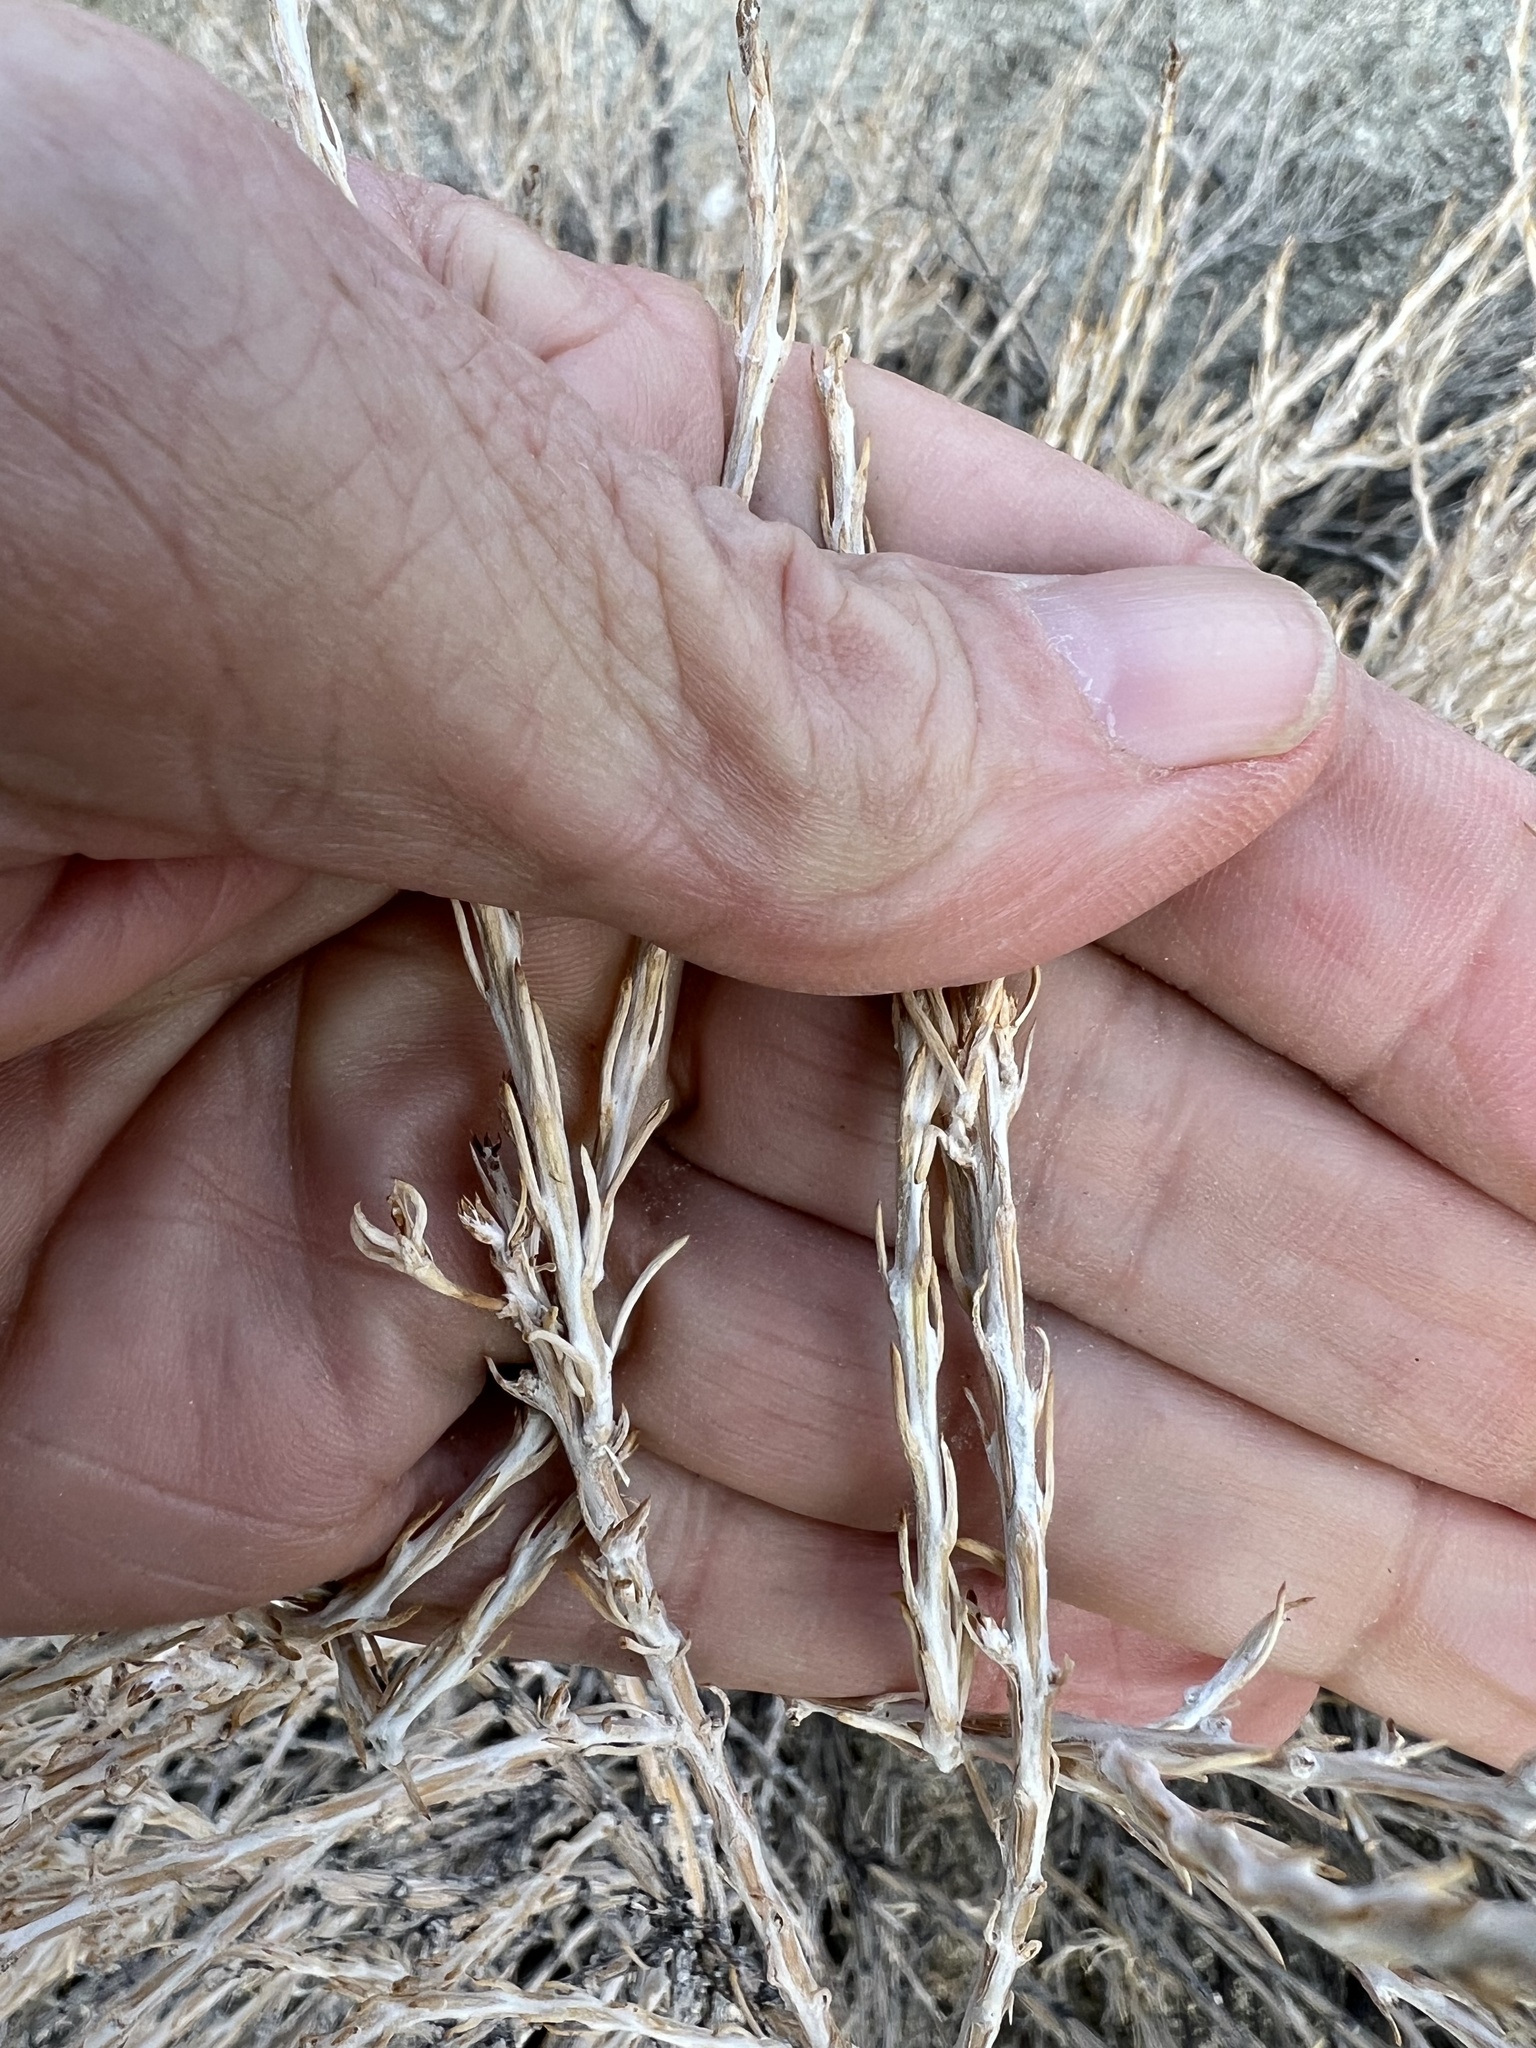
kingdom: Plantae
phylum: Tracheophyta
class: Magnoliopsida
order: Asterales
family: Asteraceae
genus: Tetradymia
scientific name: Tetradymia glabrata
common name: Smooth tetradymia
